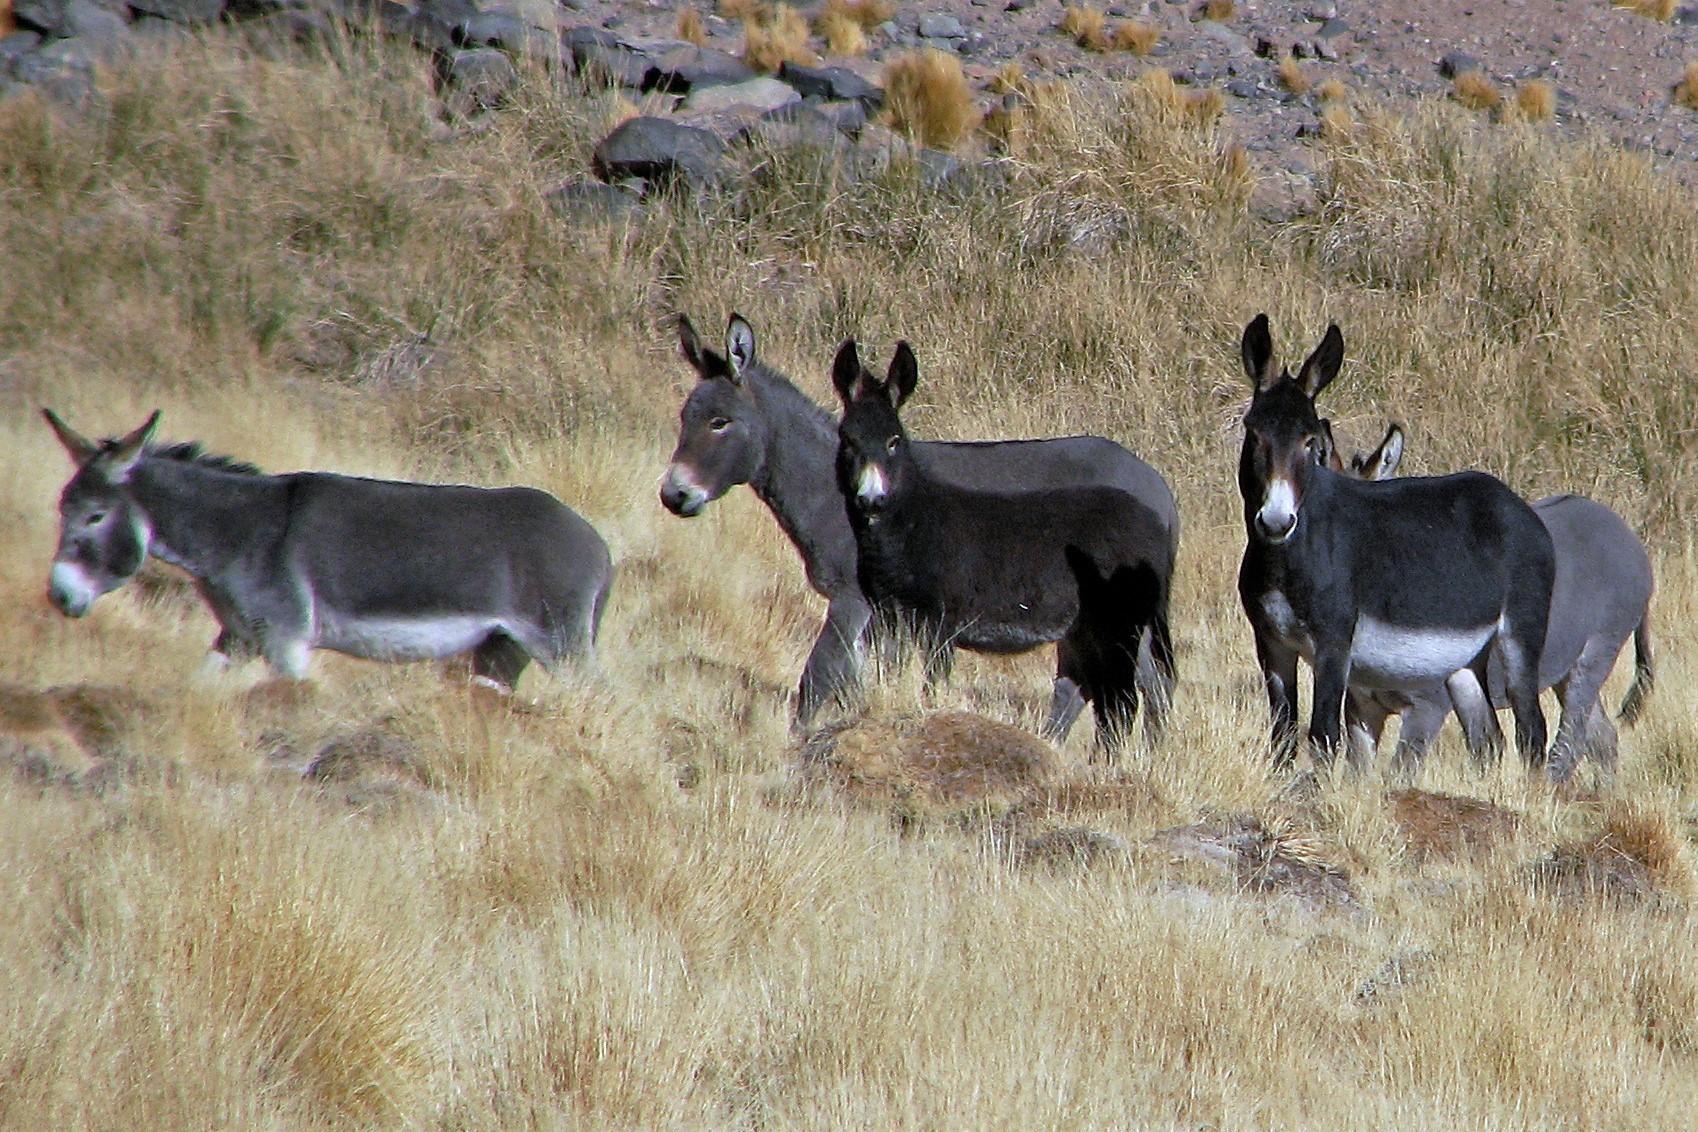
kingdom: Animalia
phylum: Chordata
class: Mammalia
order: Perissodactyla
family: Equidae
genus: Equus
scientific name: Equus asinus
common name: Ass
